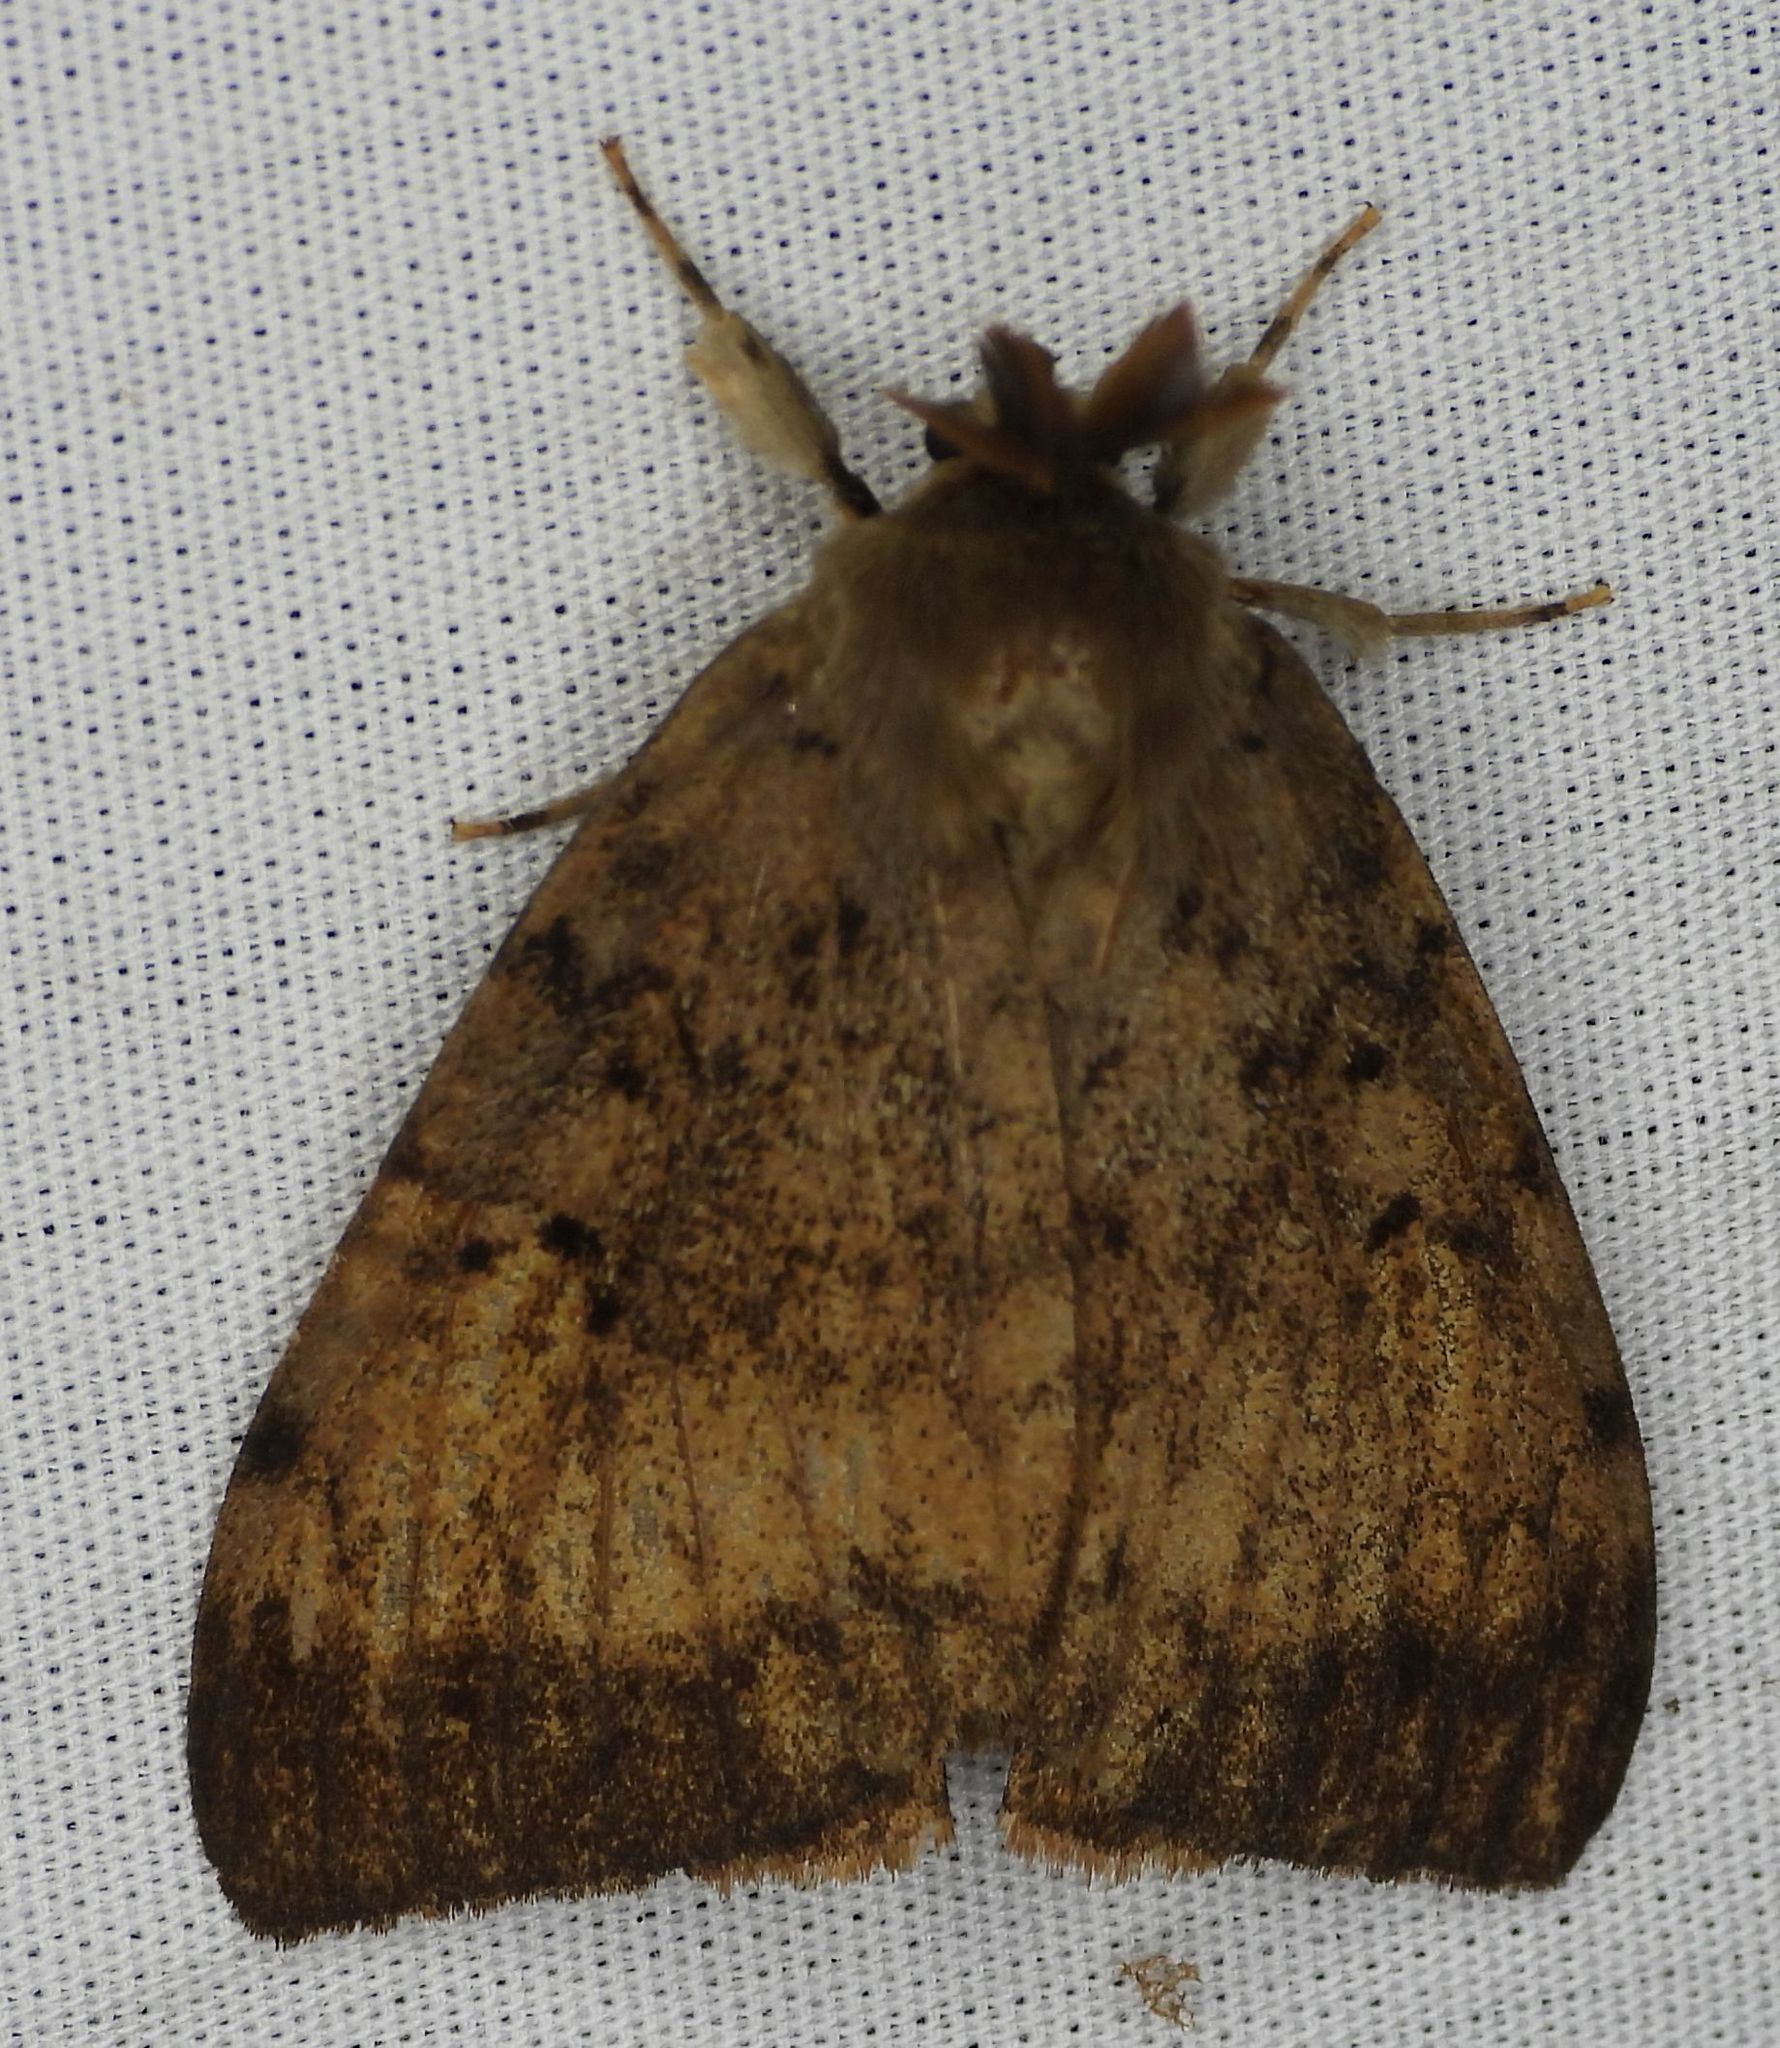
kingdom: Animalia
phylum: Arthropoda
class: Insecta
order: Lepidoptera
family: Erebidae
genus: Lymantria
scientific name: Lymantria dispar
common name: Gypsy moth
